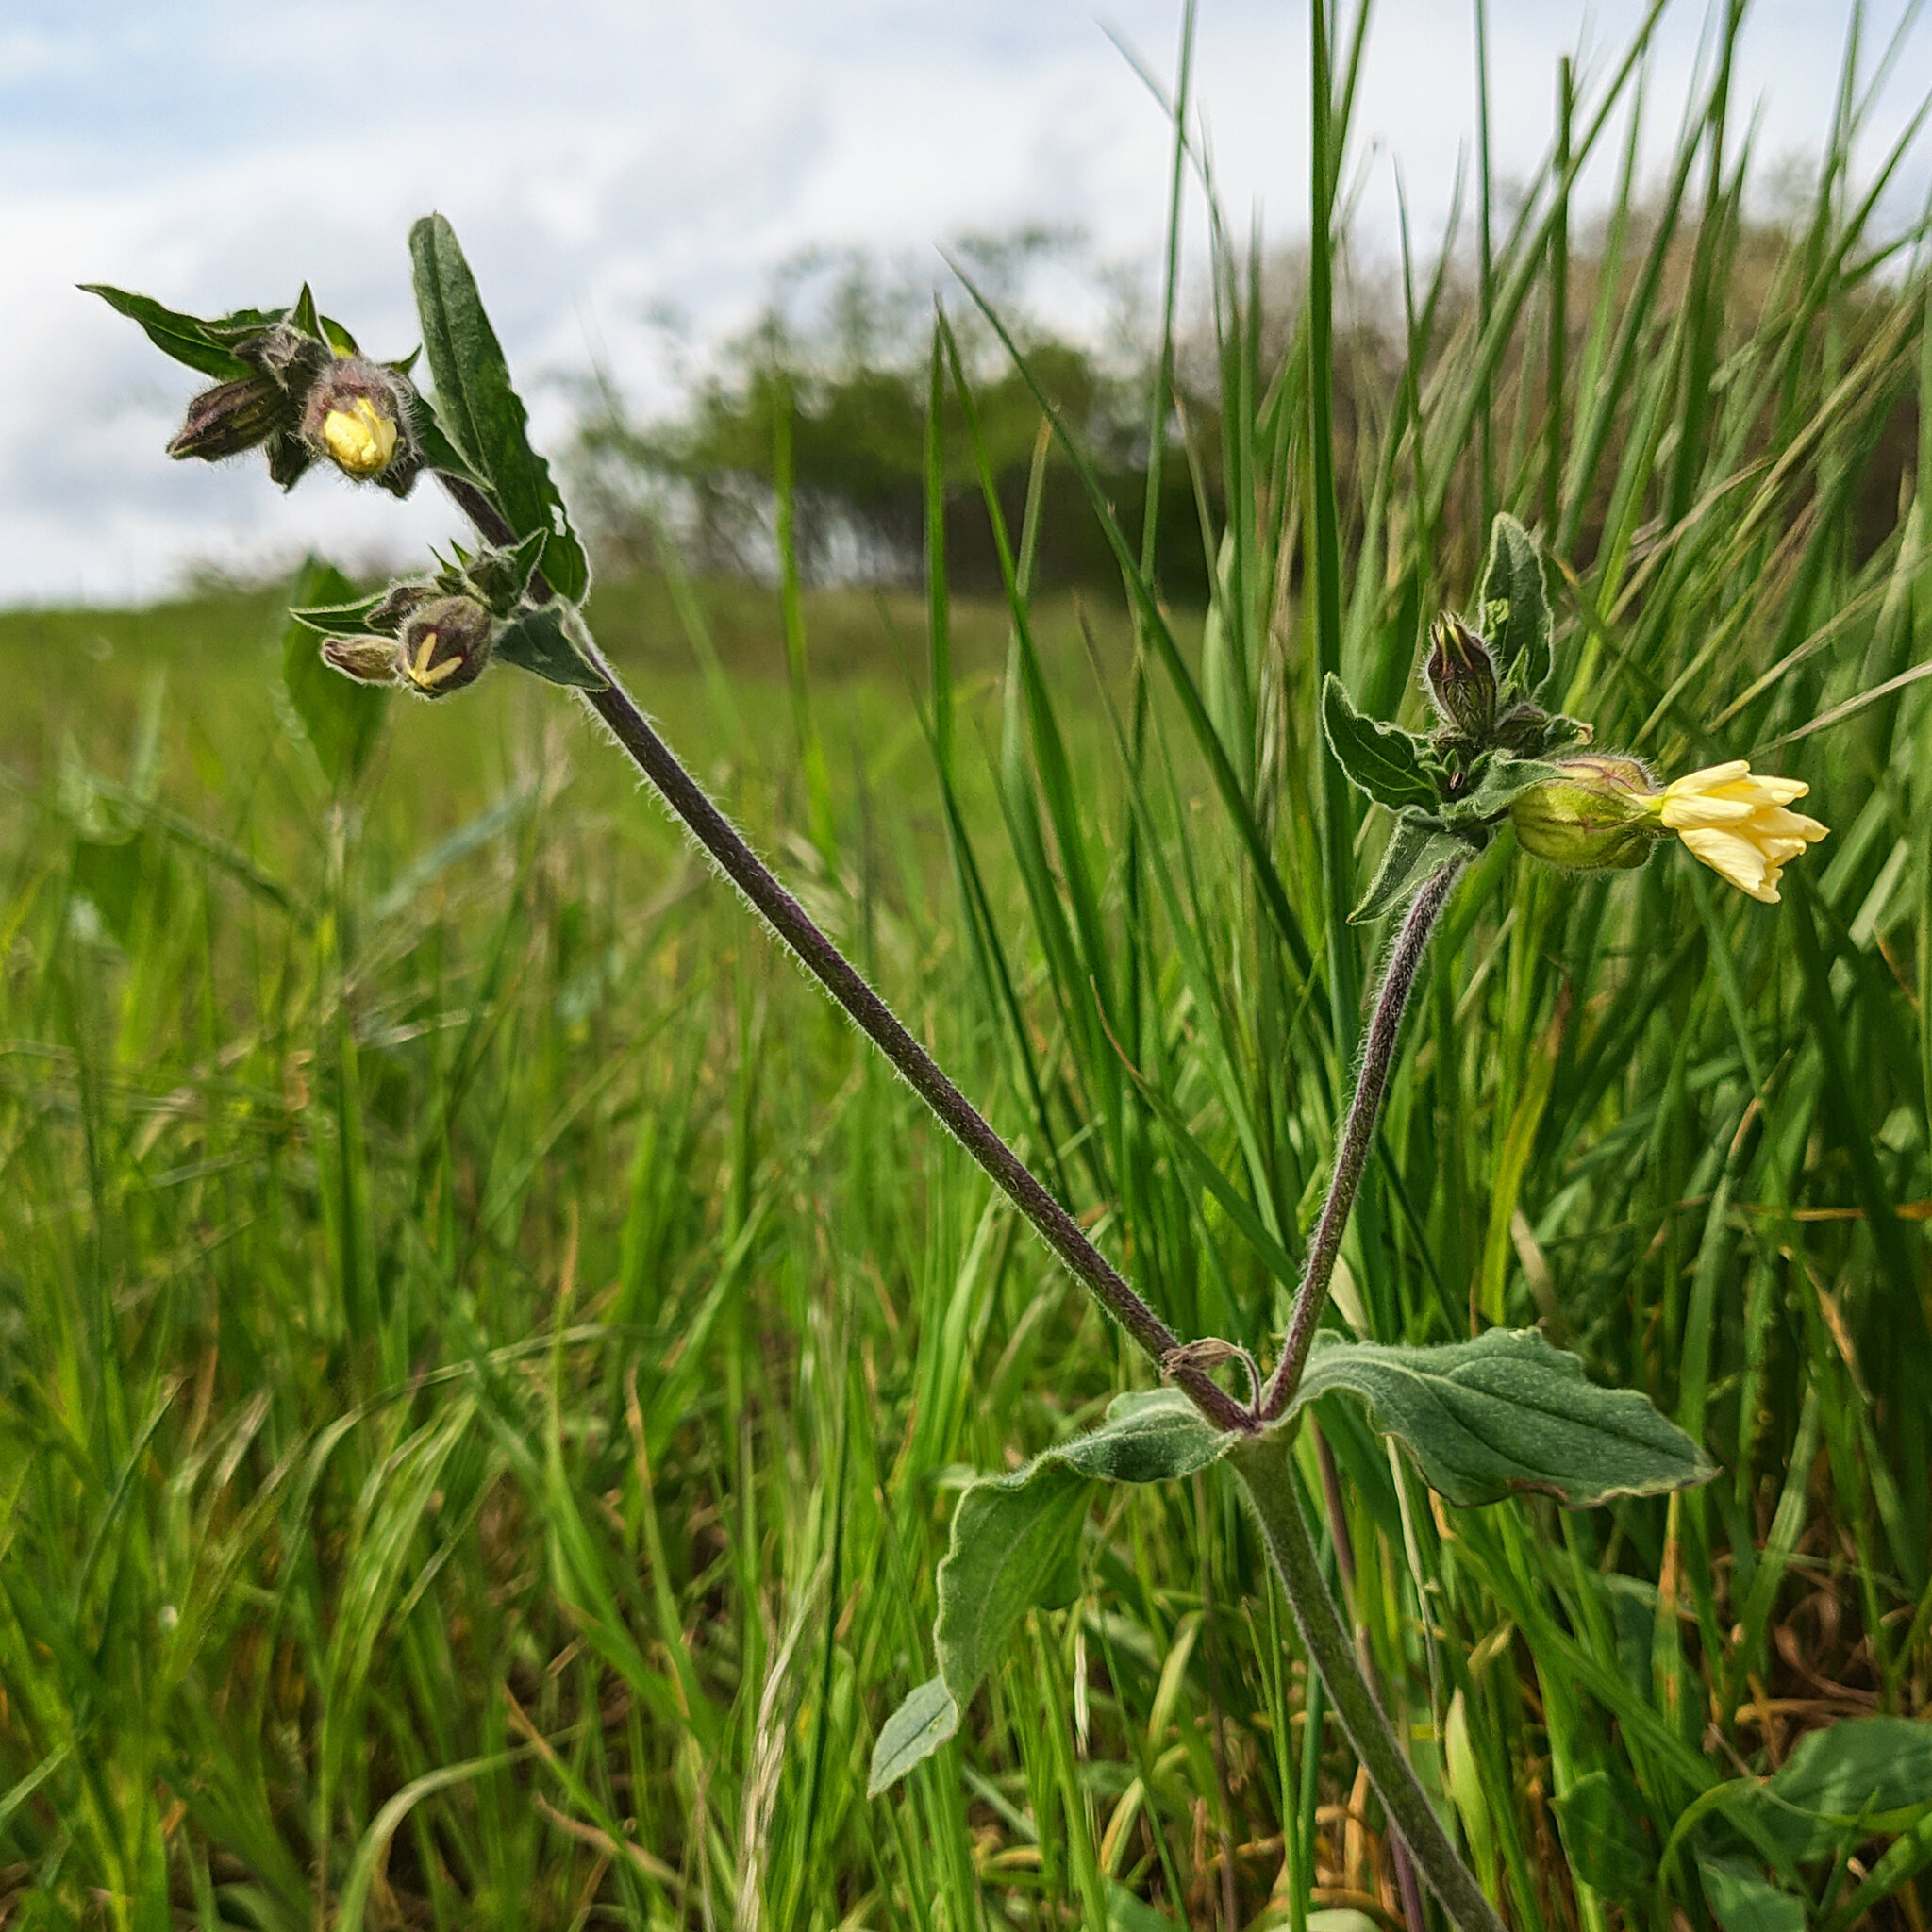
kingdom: Plantae
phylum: Tracheophyta
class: Magnoliopsida
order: Caryophyllales
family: Caryophyllaceae
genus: Silene
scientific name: Silene latifolia
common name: White campion
